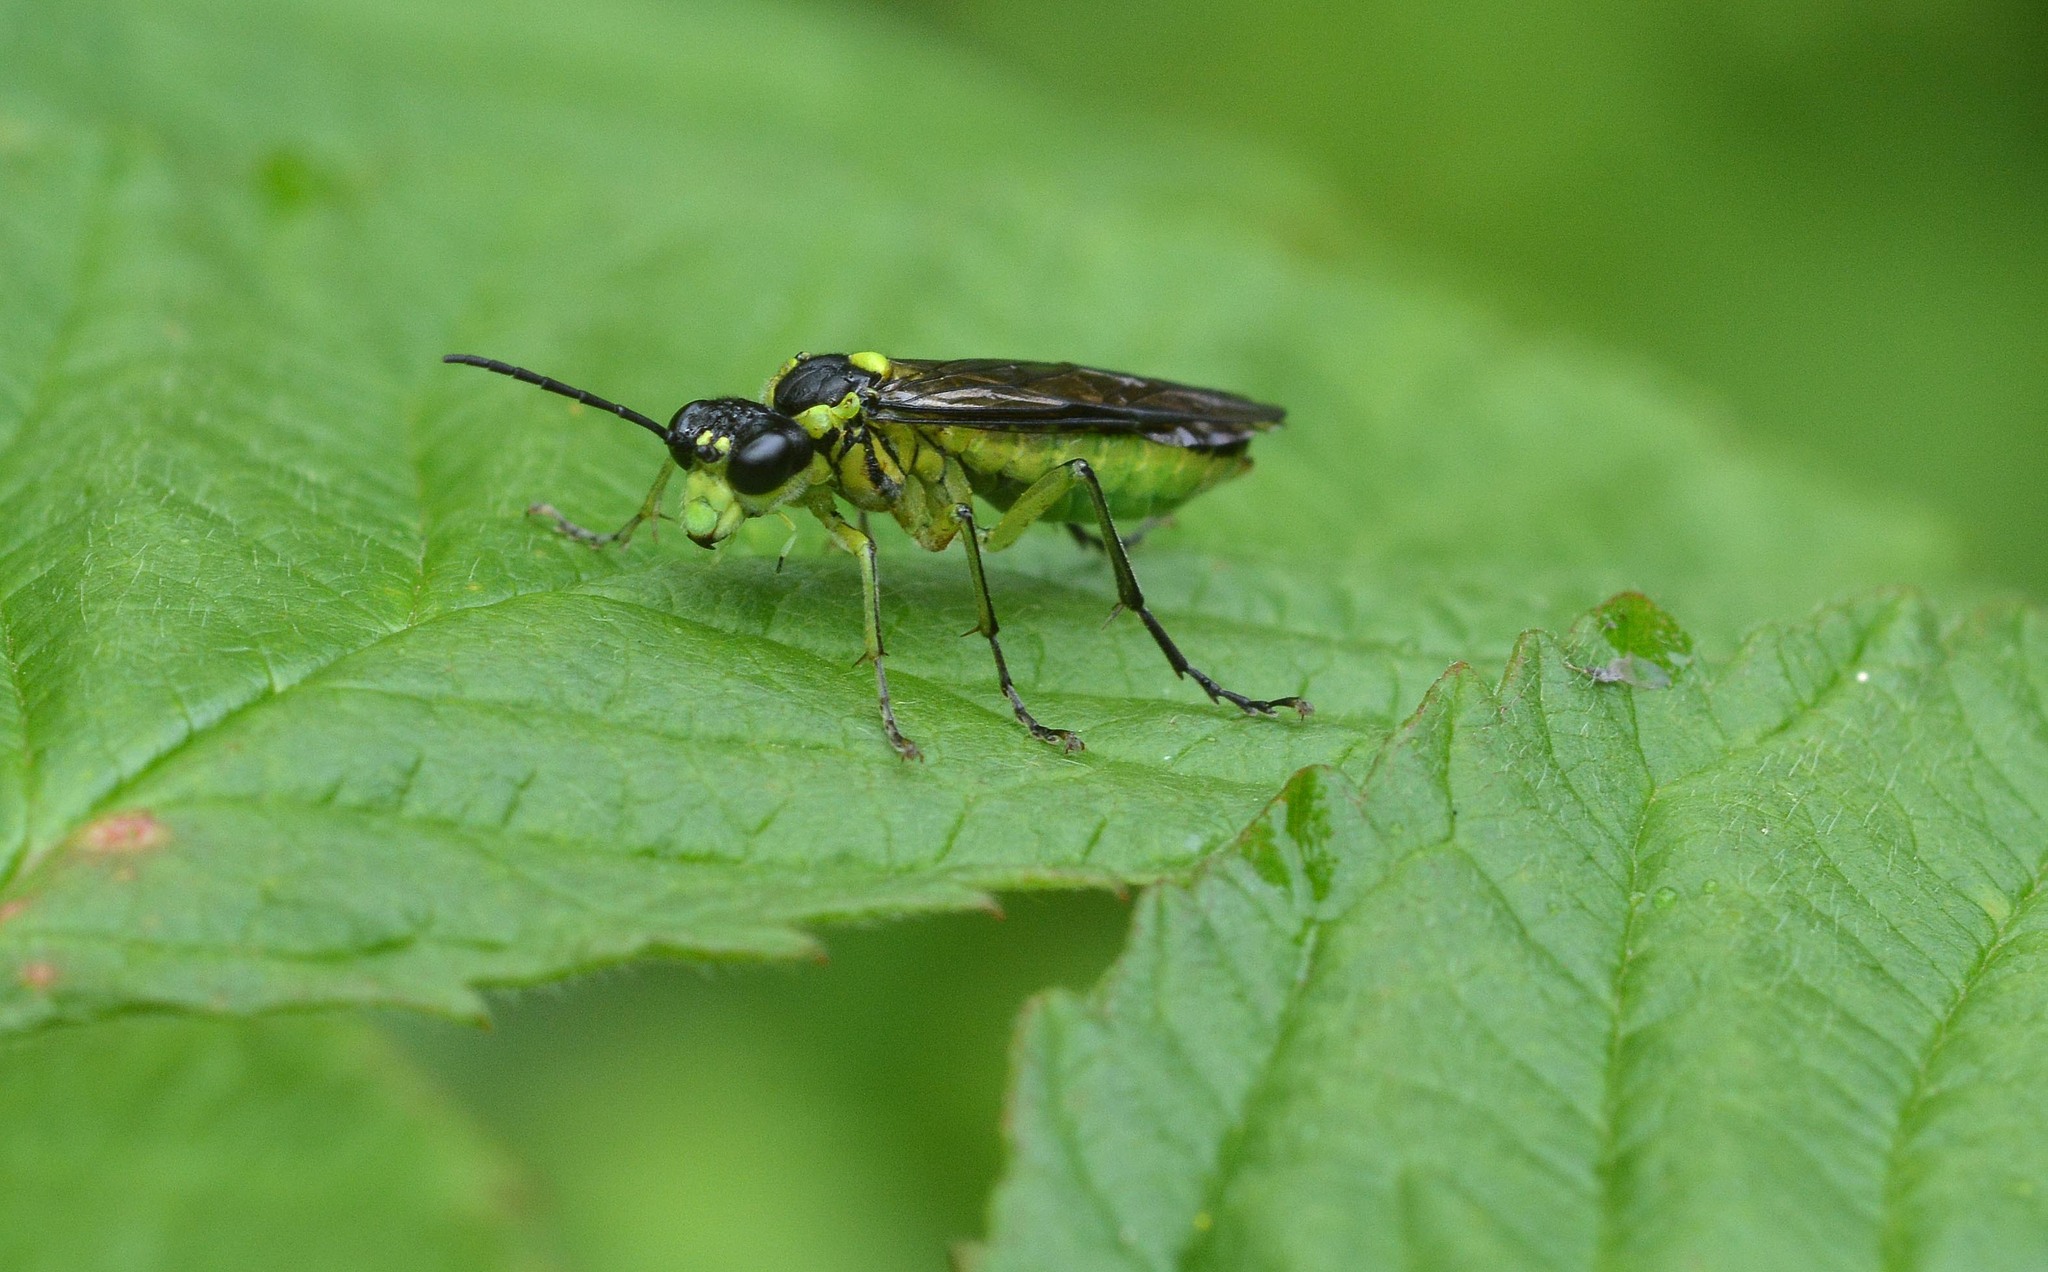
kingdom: Animalia
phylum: Arthropoda
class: Insecta
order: Hymenoptera
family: Tenthredinidae
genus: Tenthredo
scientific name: Tenthredo mesomela
